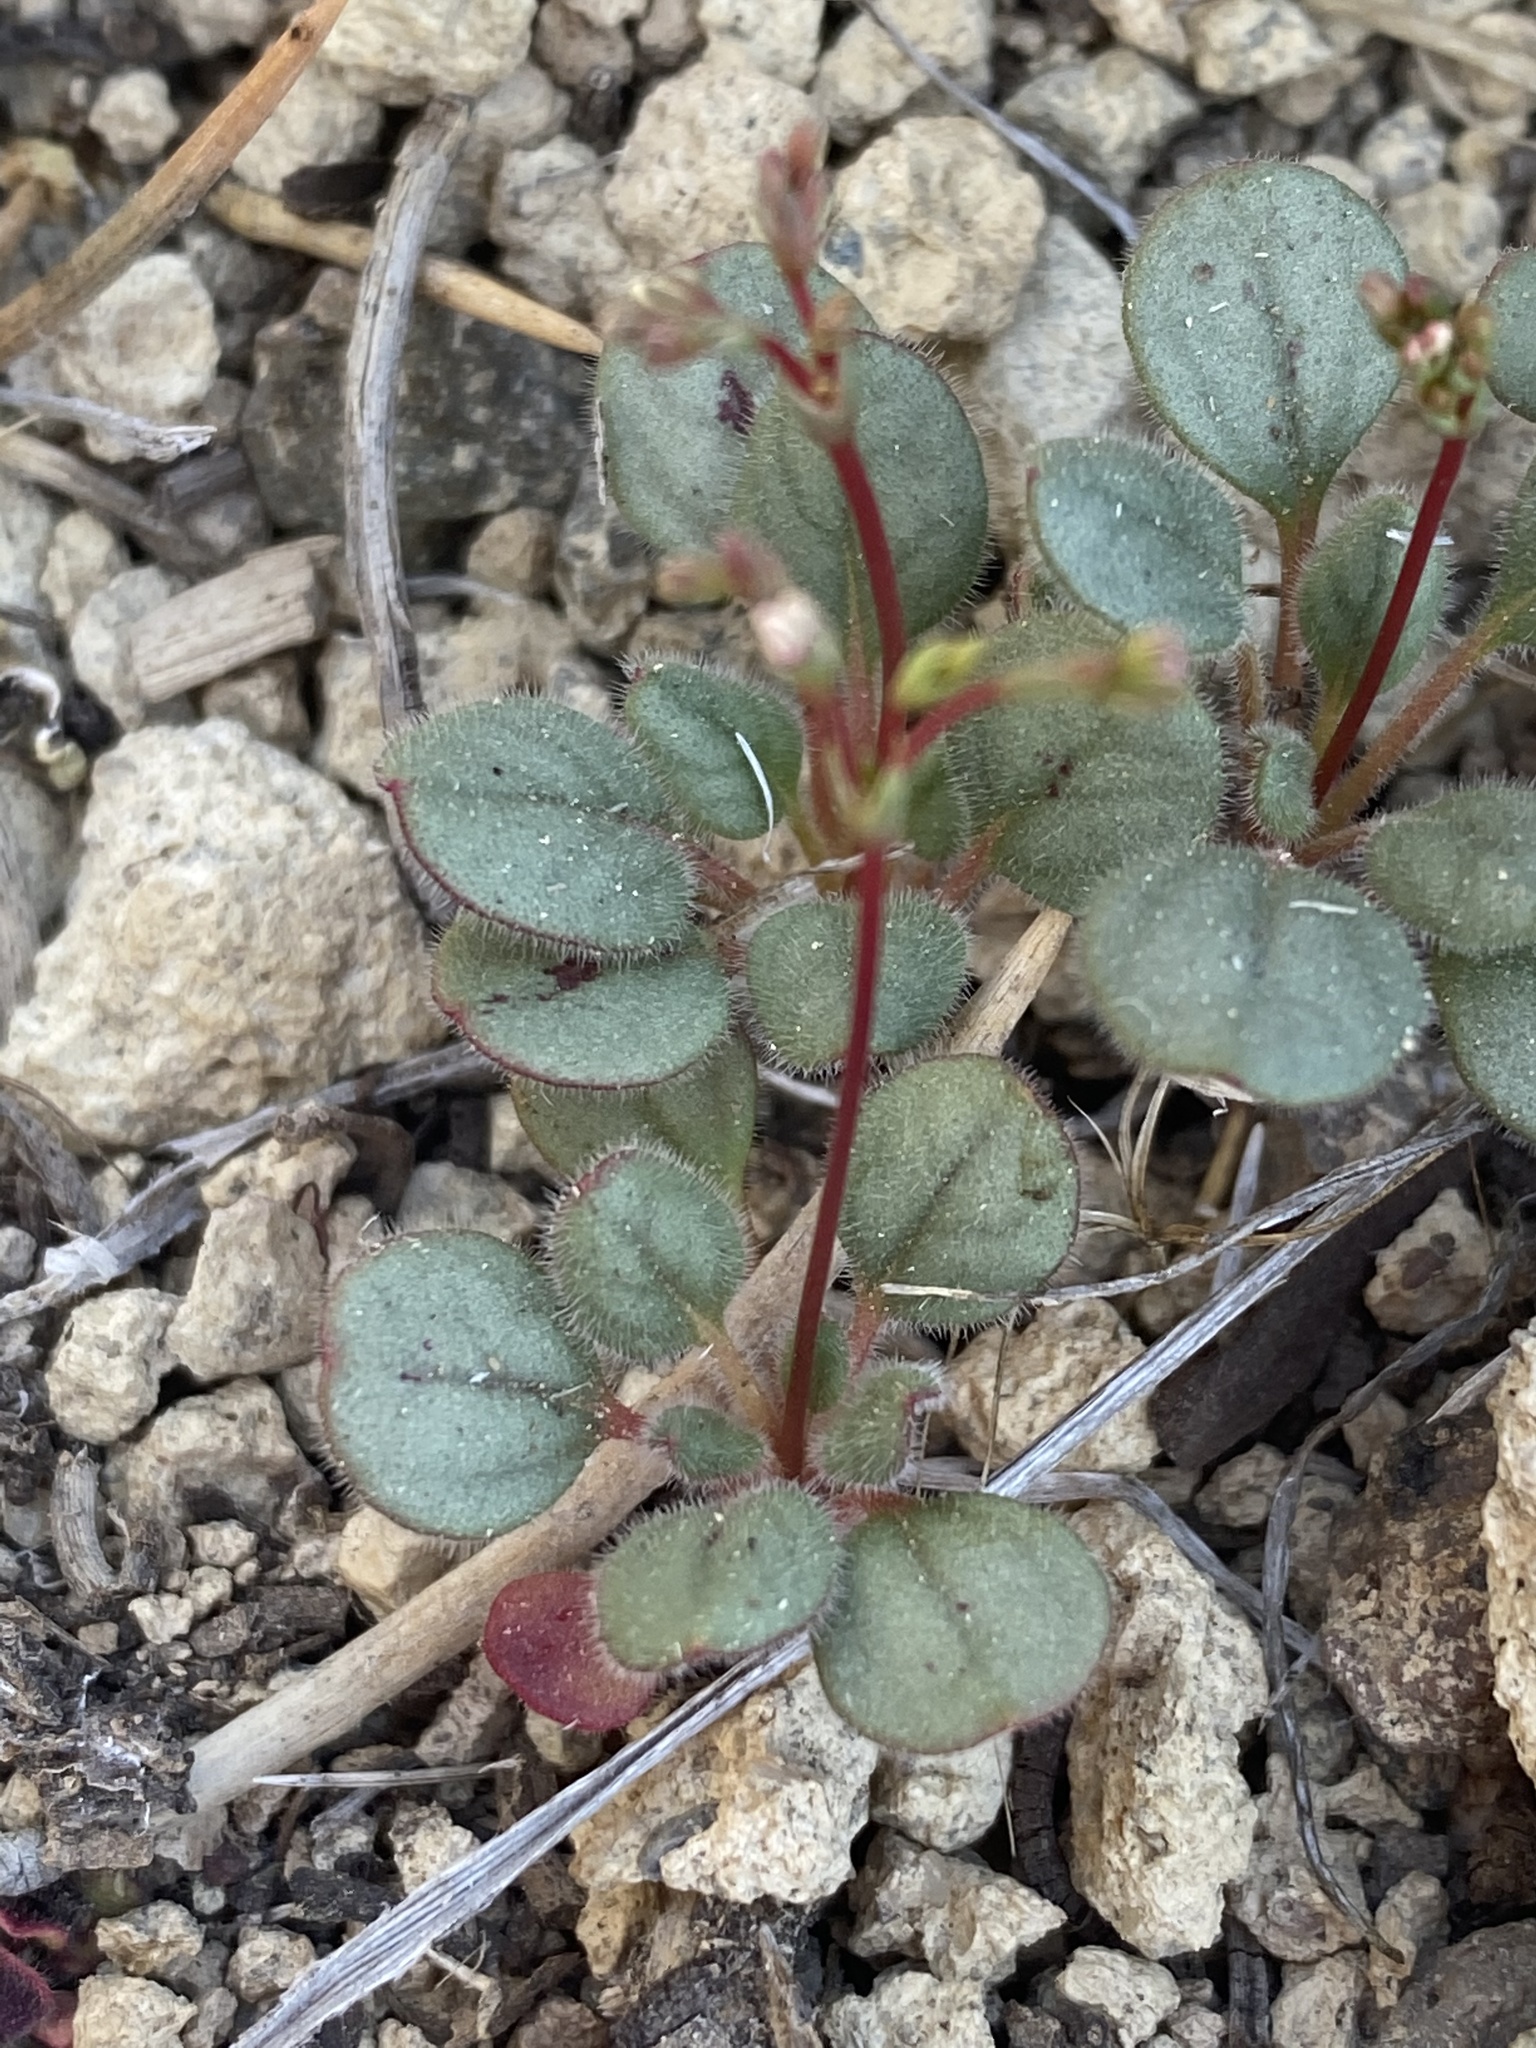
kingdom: Plantae
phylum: Tracheophyta
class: Magnoliopsida
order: Caryophyllales
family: Polygonaceae
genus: Eriogonum
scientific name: Eriogonum esmeraldense
